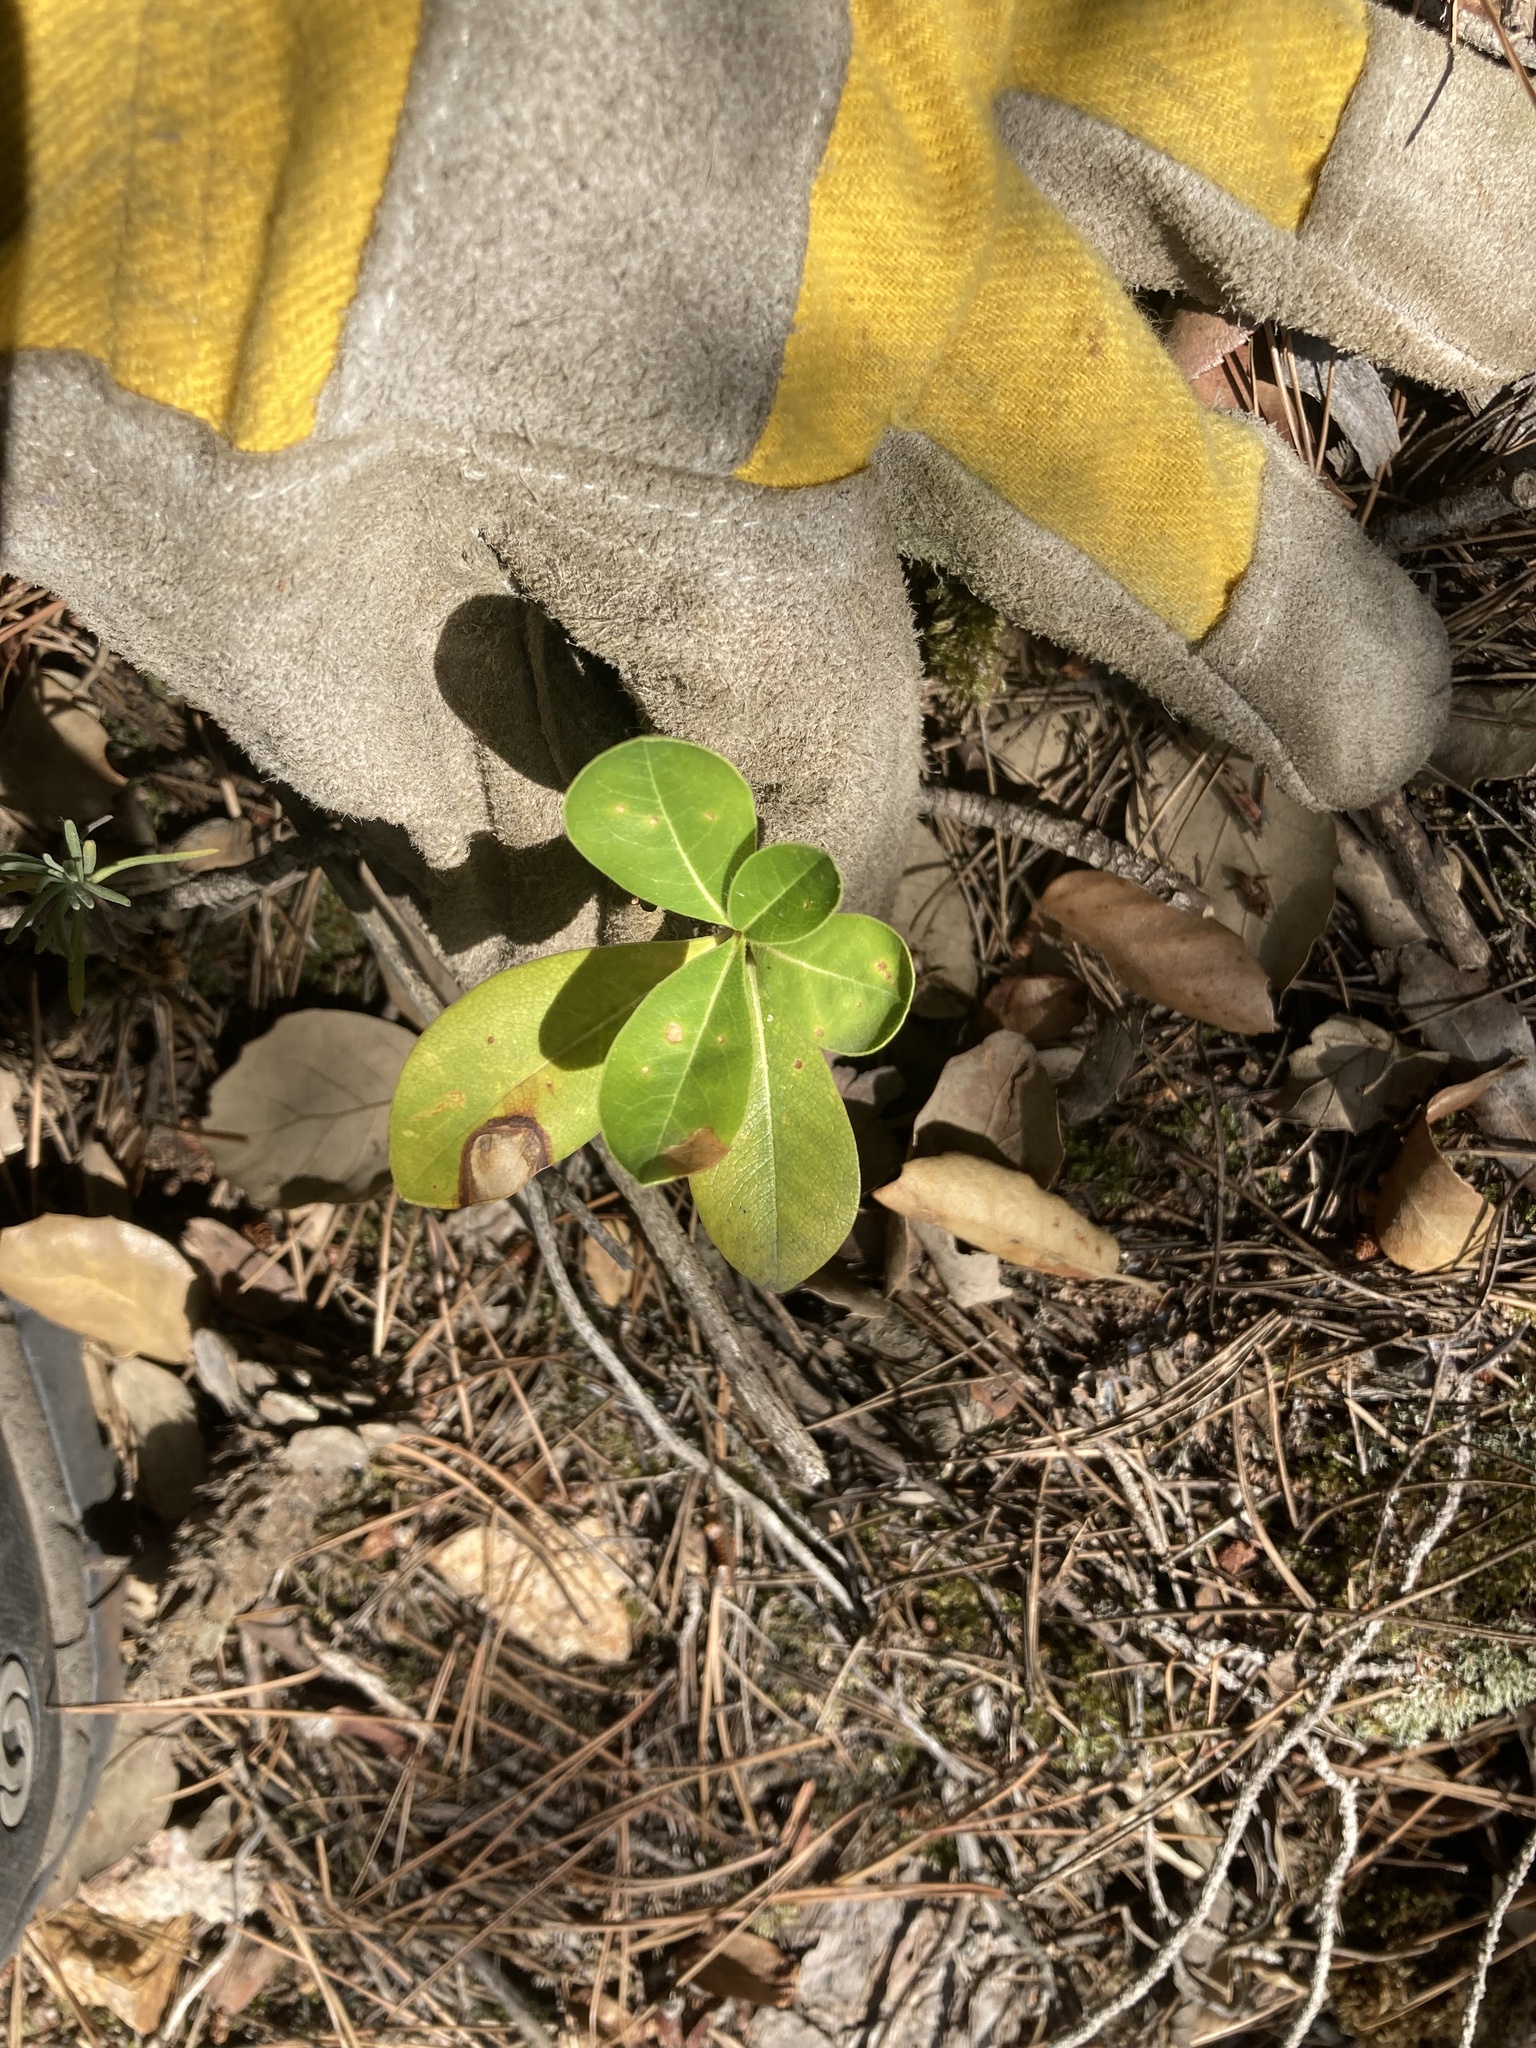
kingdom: Plantae
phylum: Tracheophyta
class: Magnoliopsida
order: Apiales
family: Pittosporaceae
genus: Pittosporum
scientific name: Pittosporum tobira
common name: Japanese cheesewood
